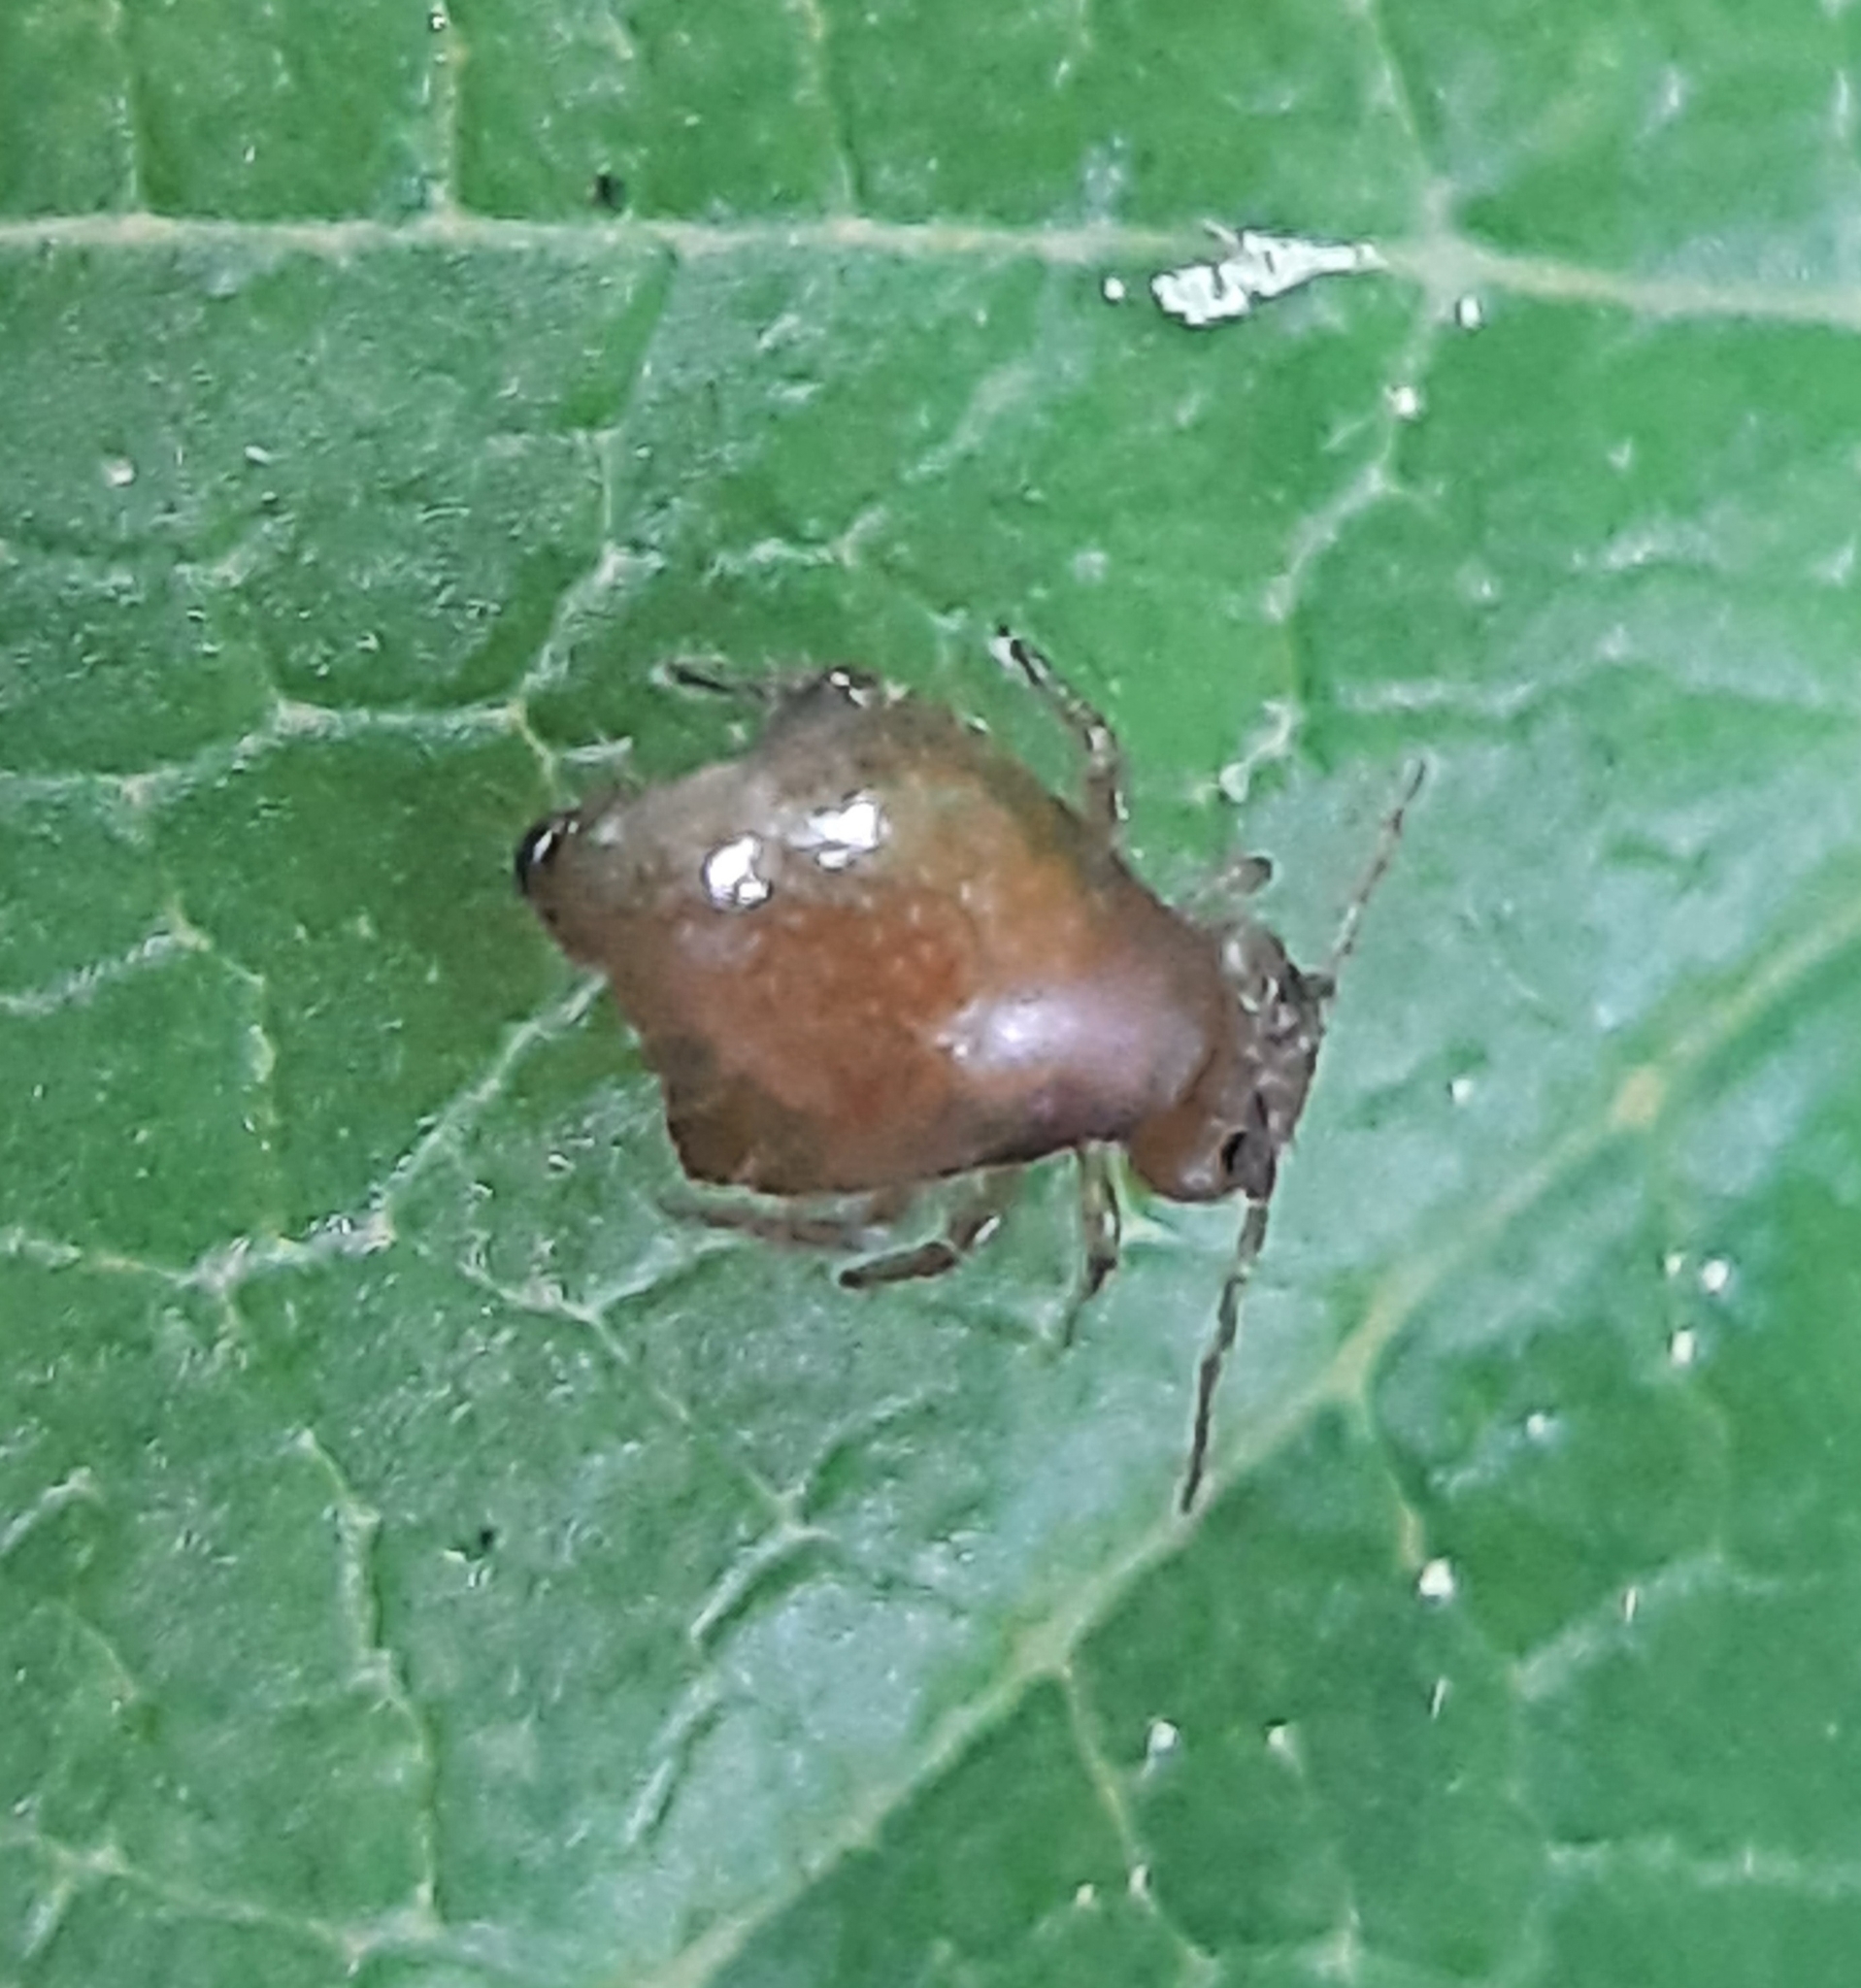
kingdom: Animalia
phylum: Arthropoda
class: Collembola
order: Symphypleona
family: Sminthuridae
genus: Allacma
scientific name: Allacma fusca
